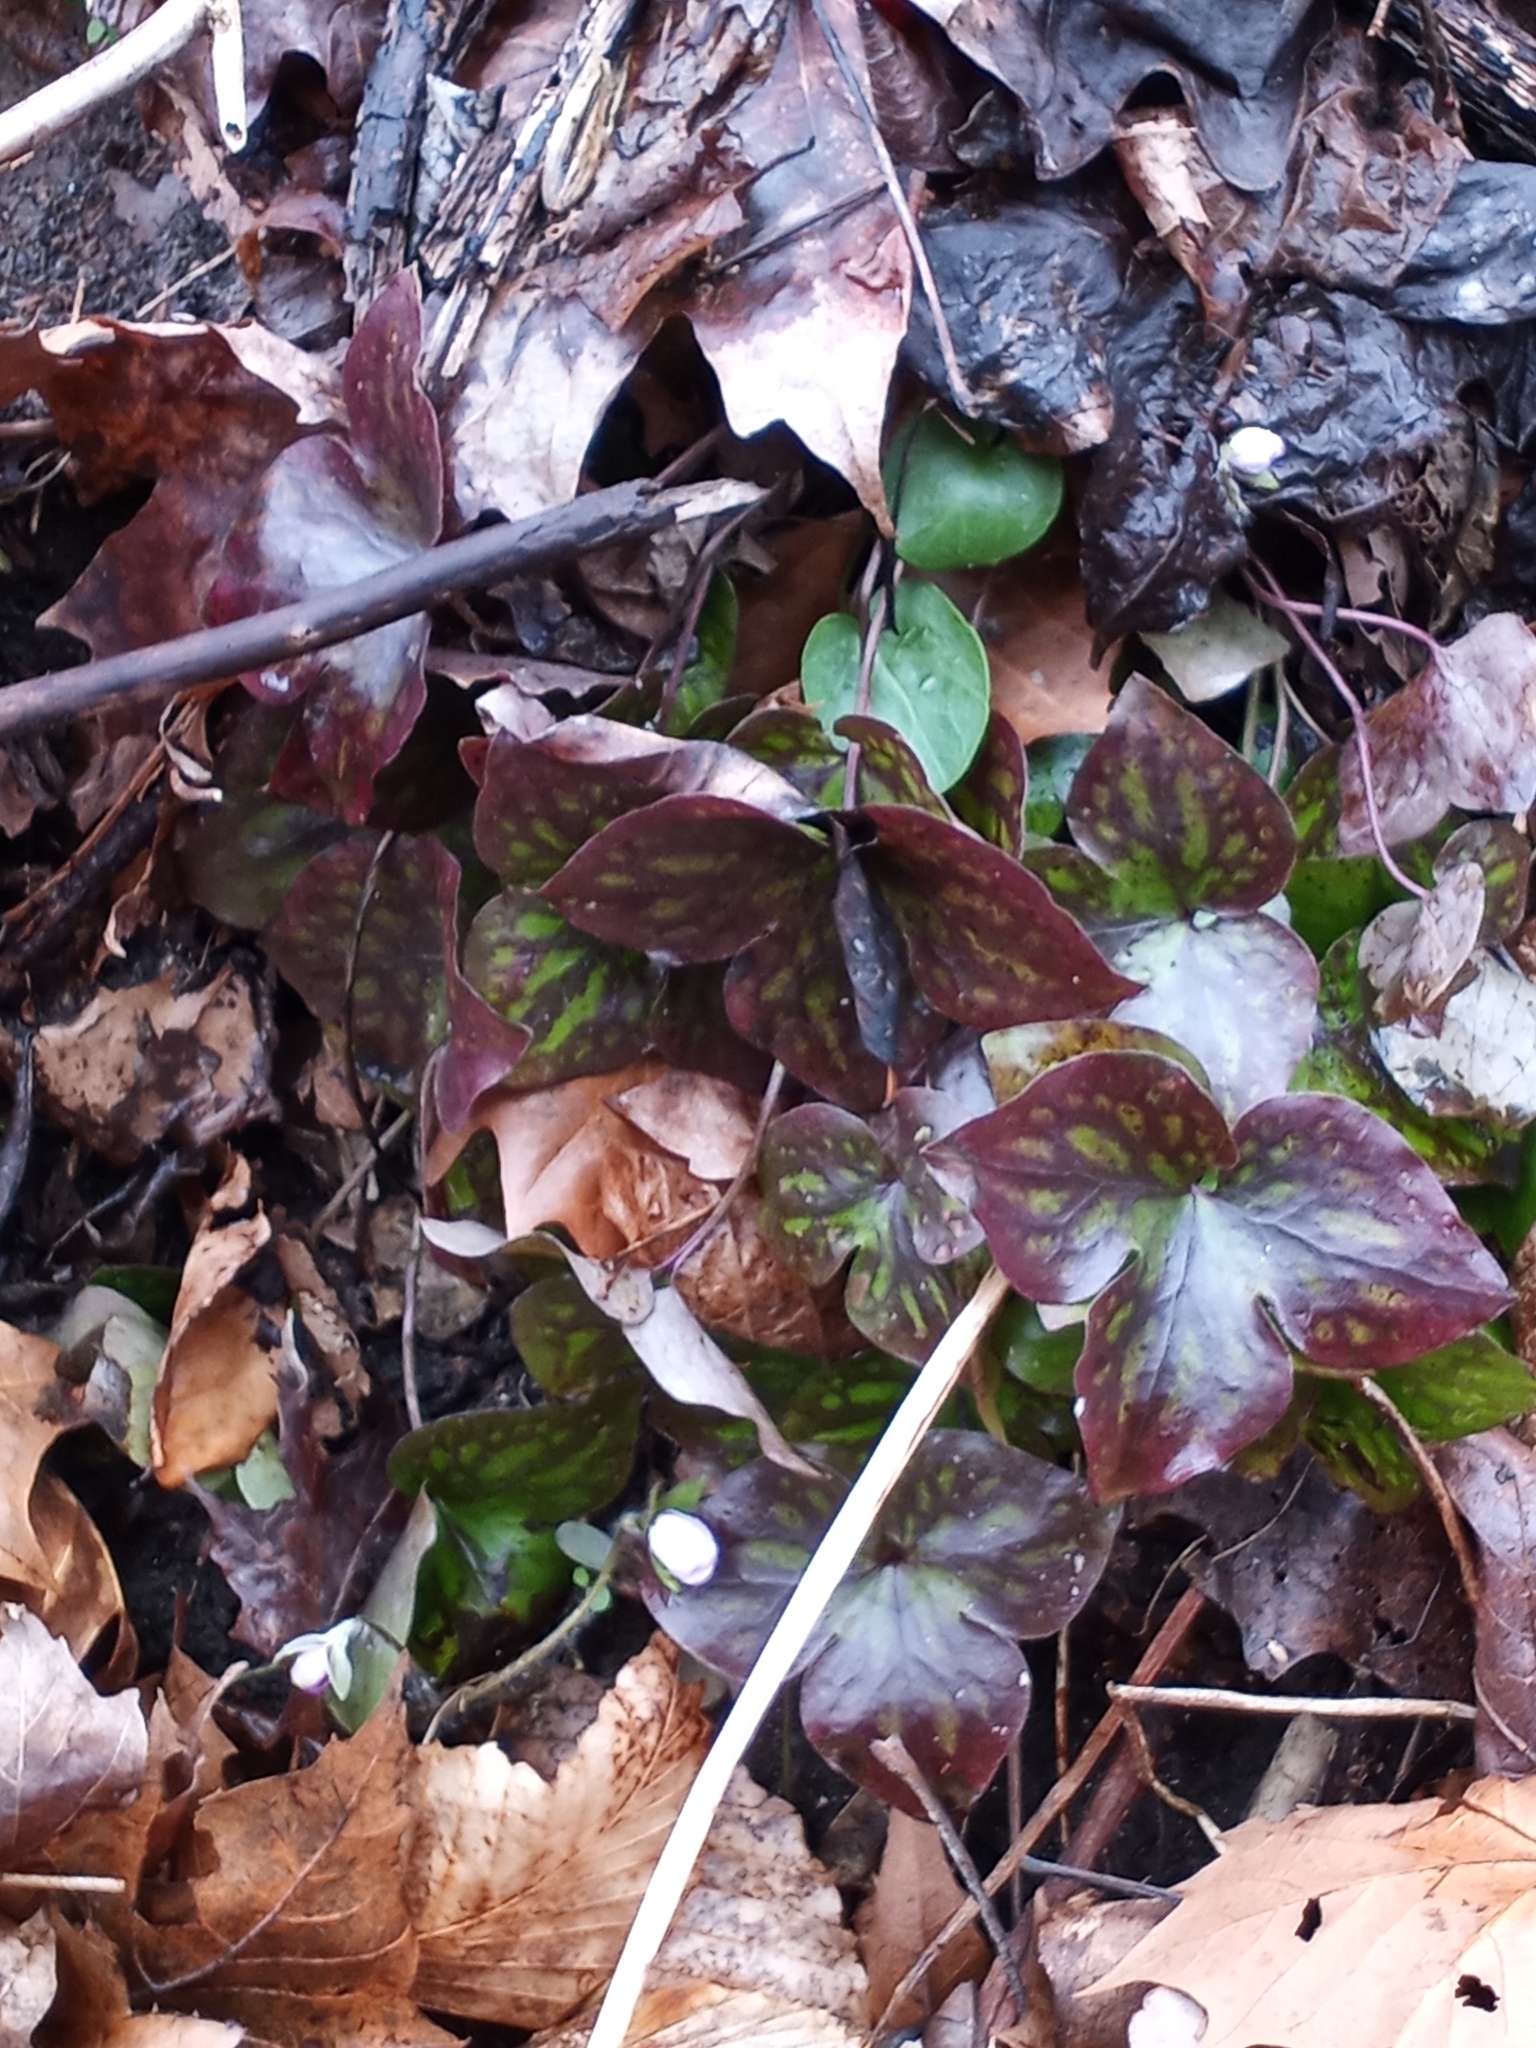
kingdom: Plantae
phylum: Tracheophyta
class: Magnoliopsida
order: Ranunculales
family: Ranunculaceae
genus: Hepatica
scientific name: Hepatica acutiloba
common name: Sharp-lobed hepatica
